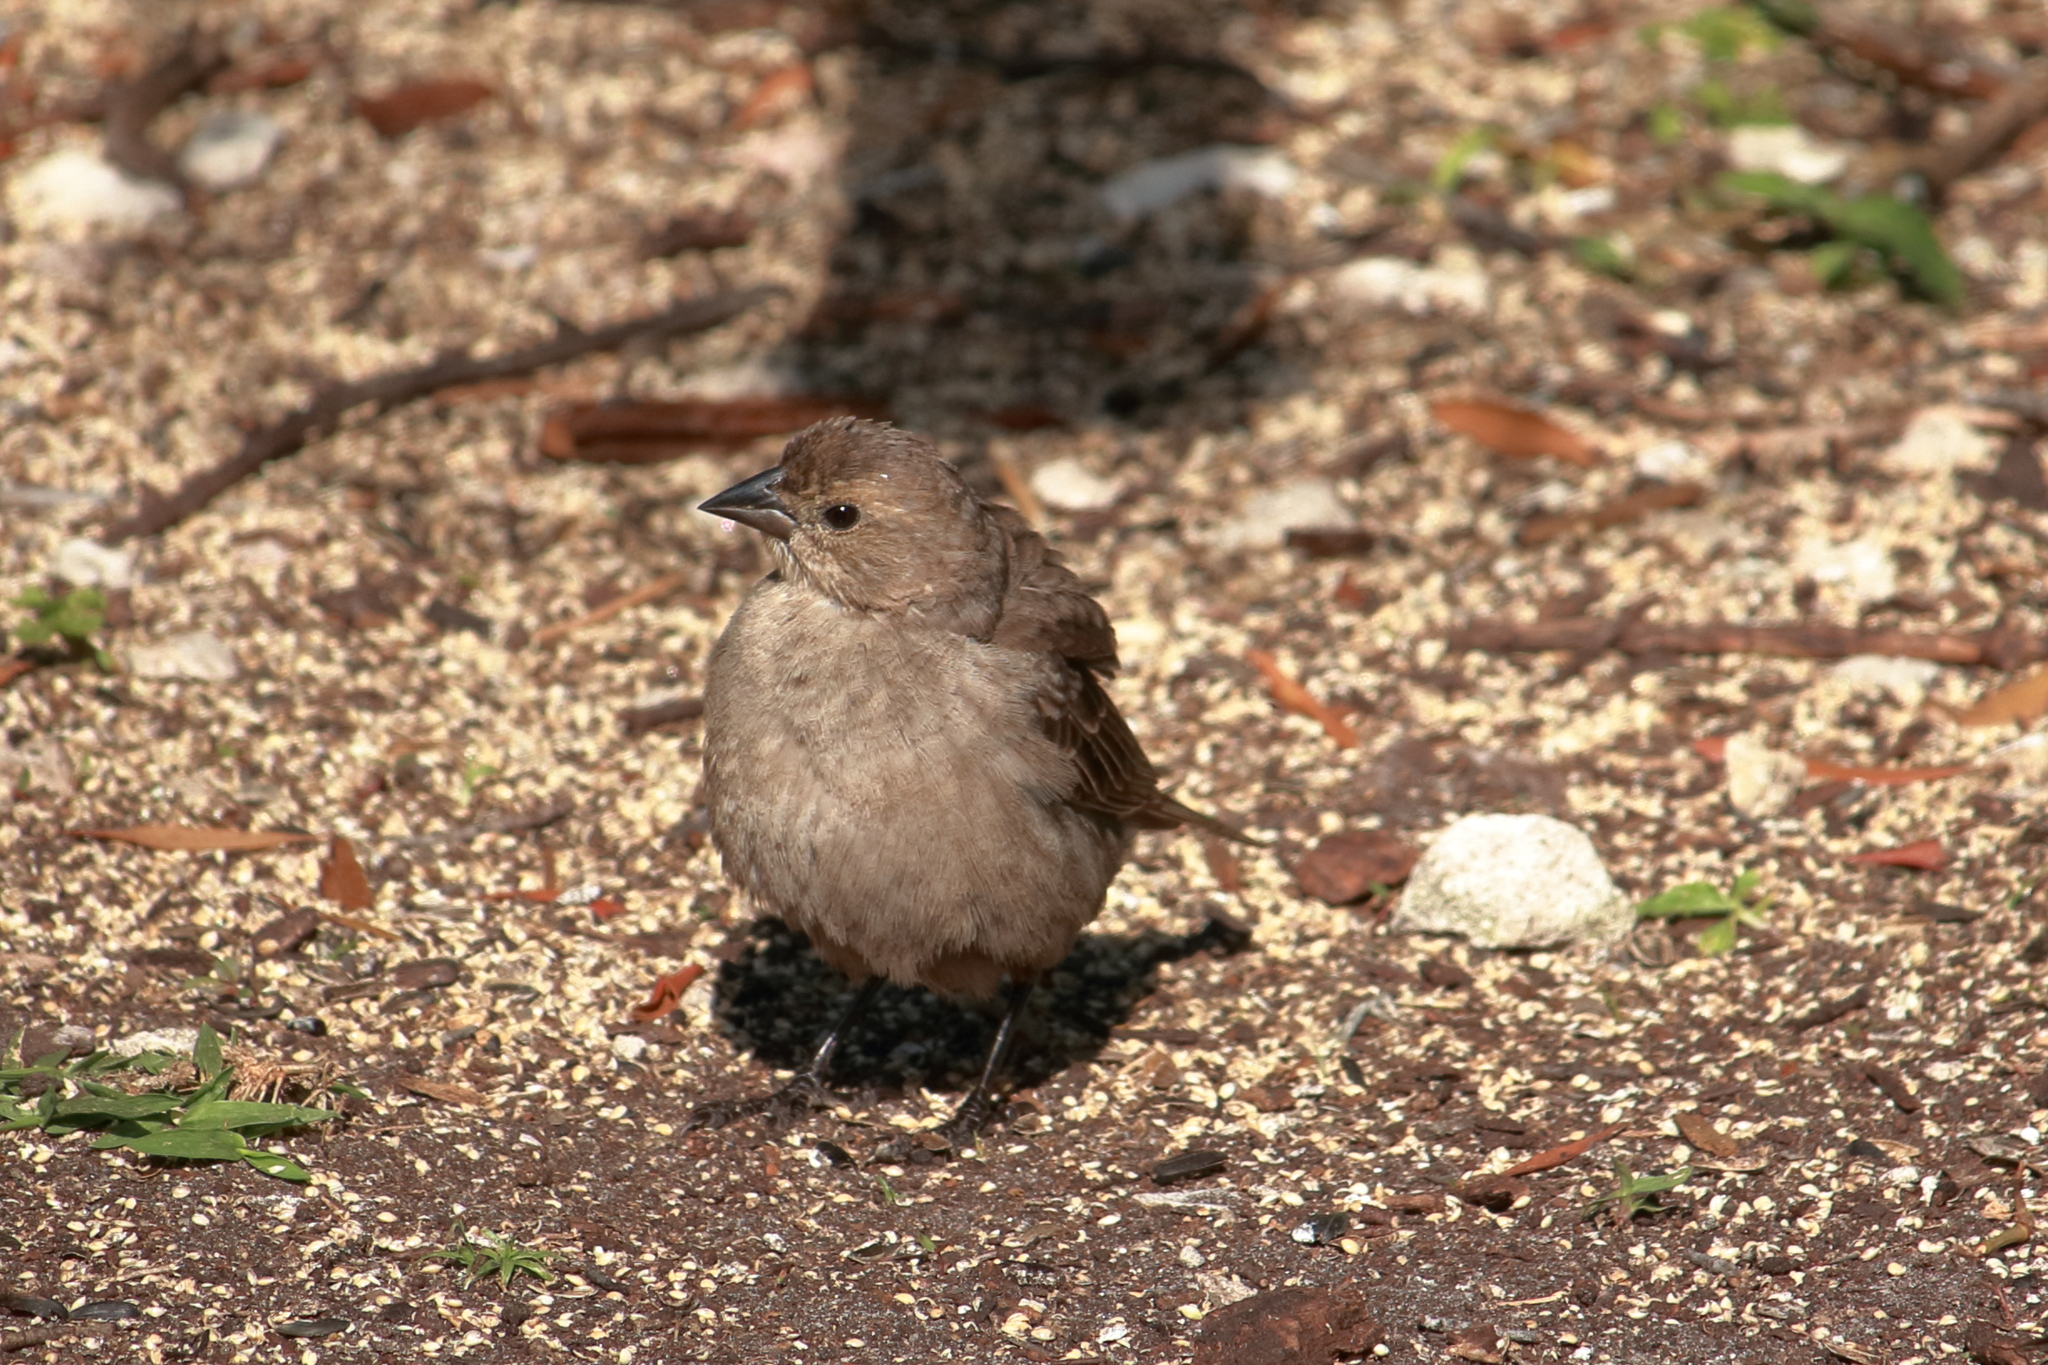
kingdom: Animalia
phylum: Chordata
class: Aves
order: Passeriformes
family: Icteridae
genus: Molothrus
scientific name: Molothrus ater
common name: Brown-headed cowbird
